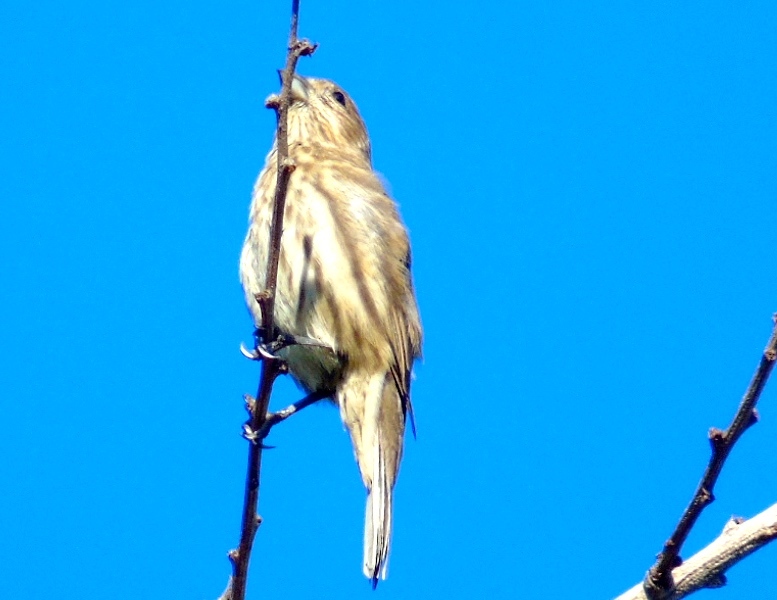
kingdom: Animalia
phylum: Chordata
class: Aves
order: Passeriformes
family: Fringillidae
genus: Haemorhous
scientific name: Haemorhous mexicanus
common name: House finch
